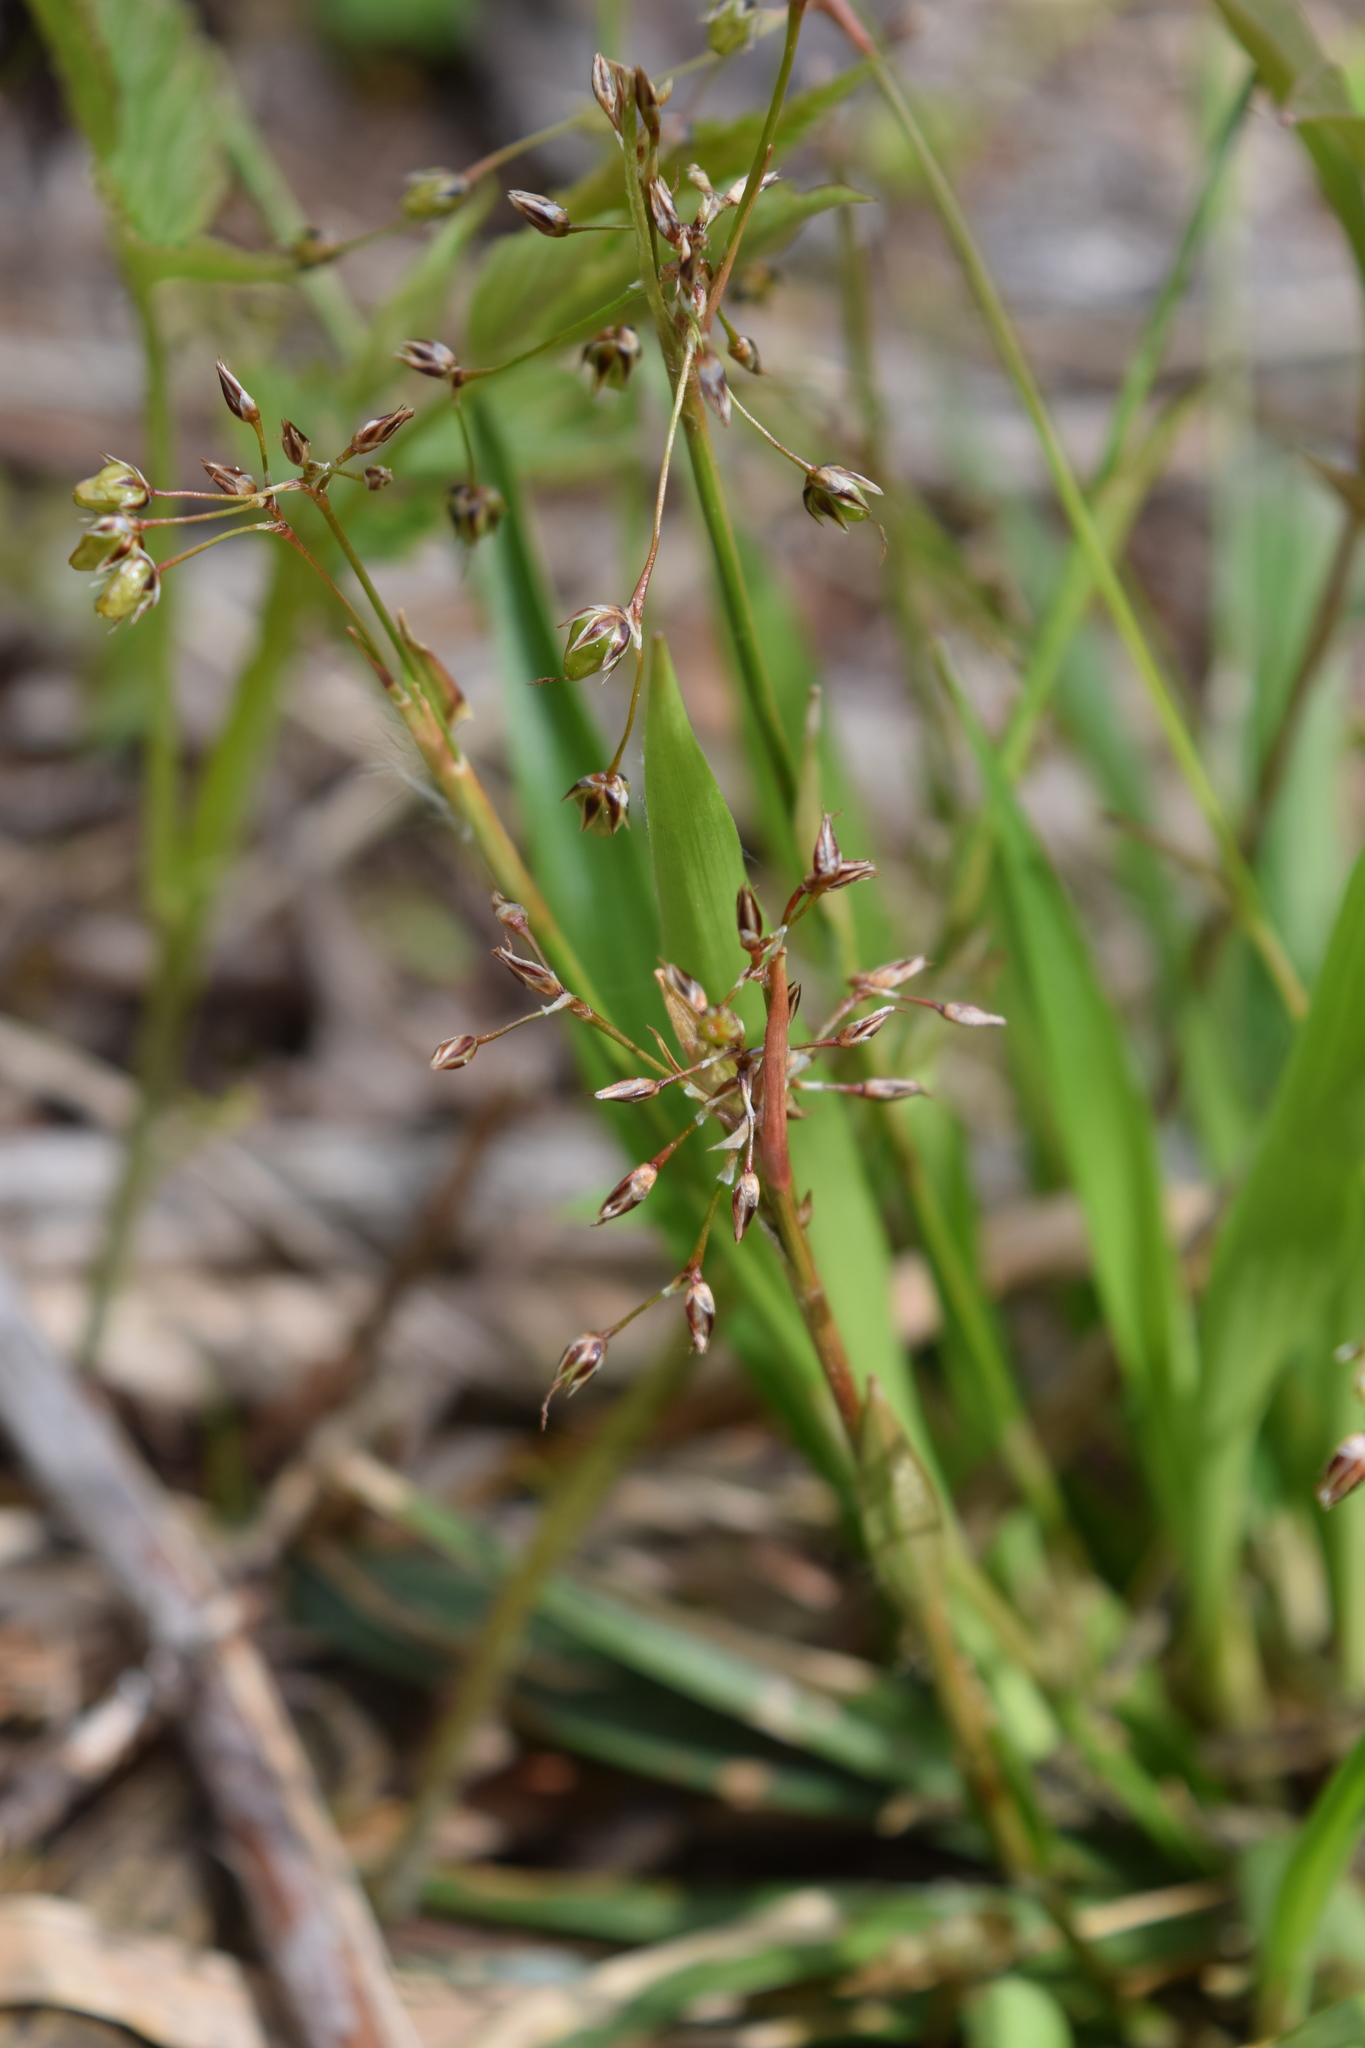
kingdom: Plantae
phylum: Tracheophyta
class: Liliopsida
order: Poales
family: Juncaceae
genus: Luzula
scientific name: Luzula pilosa
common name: Hairy wood-rush
